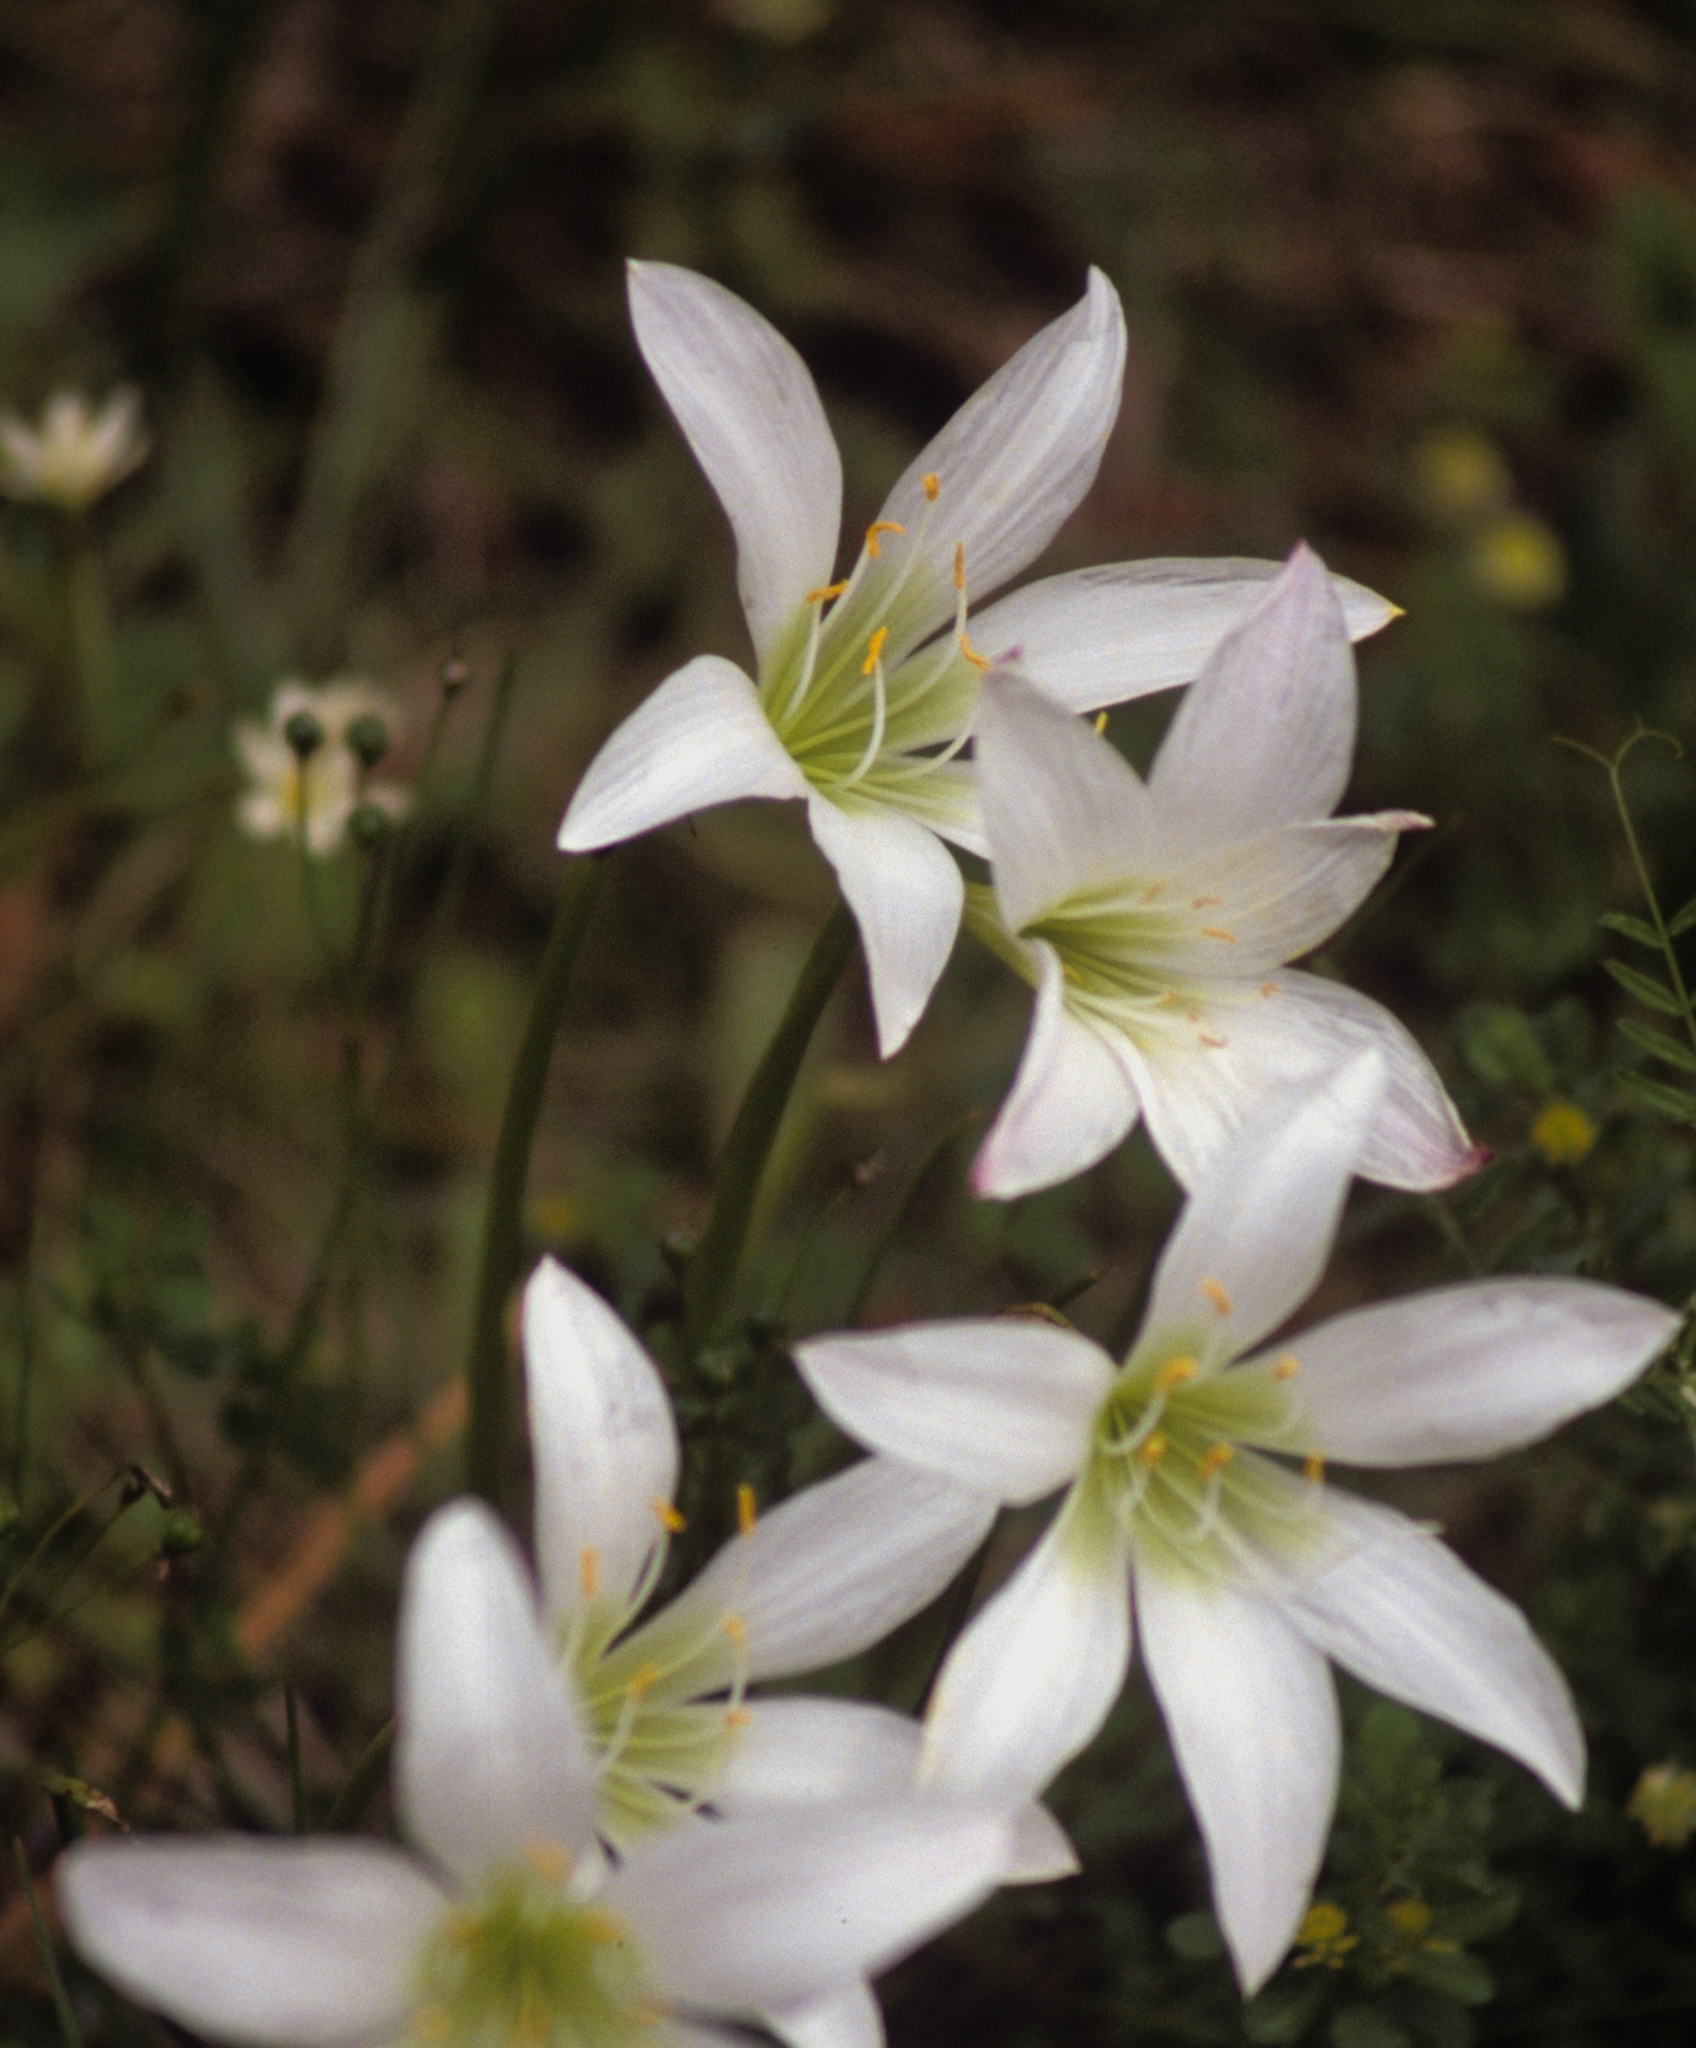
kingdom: Plantae
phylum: Tracheophyta
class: Liliopsida
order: Asparagales
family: Amaryllidaceae
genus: Zephyranthes
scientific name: Zephyranthes atamasco
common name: Atamasco lily
